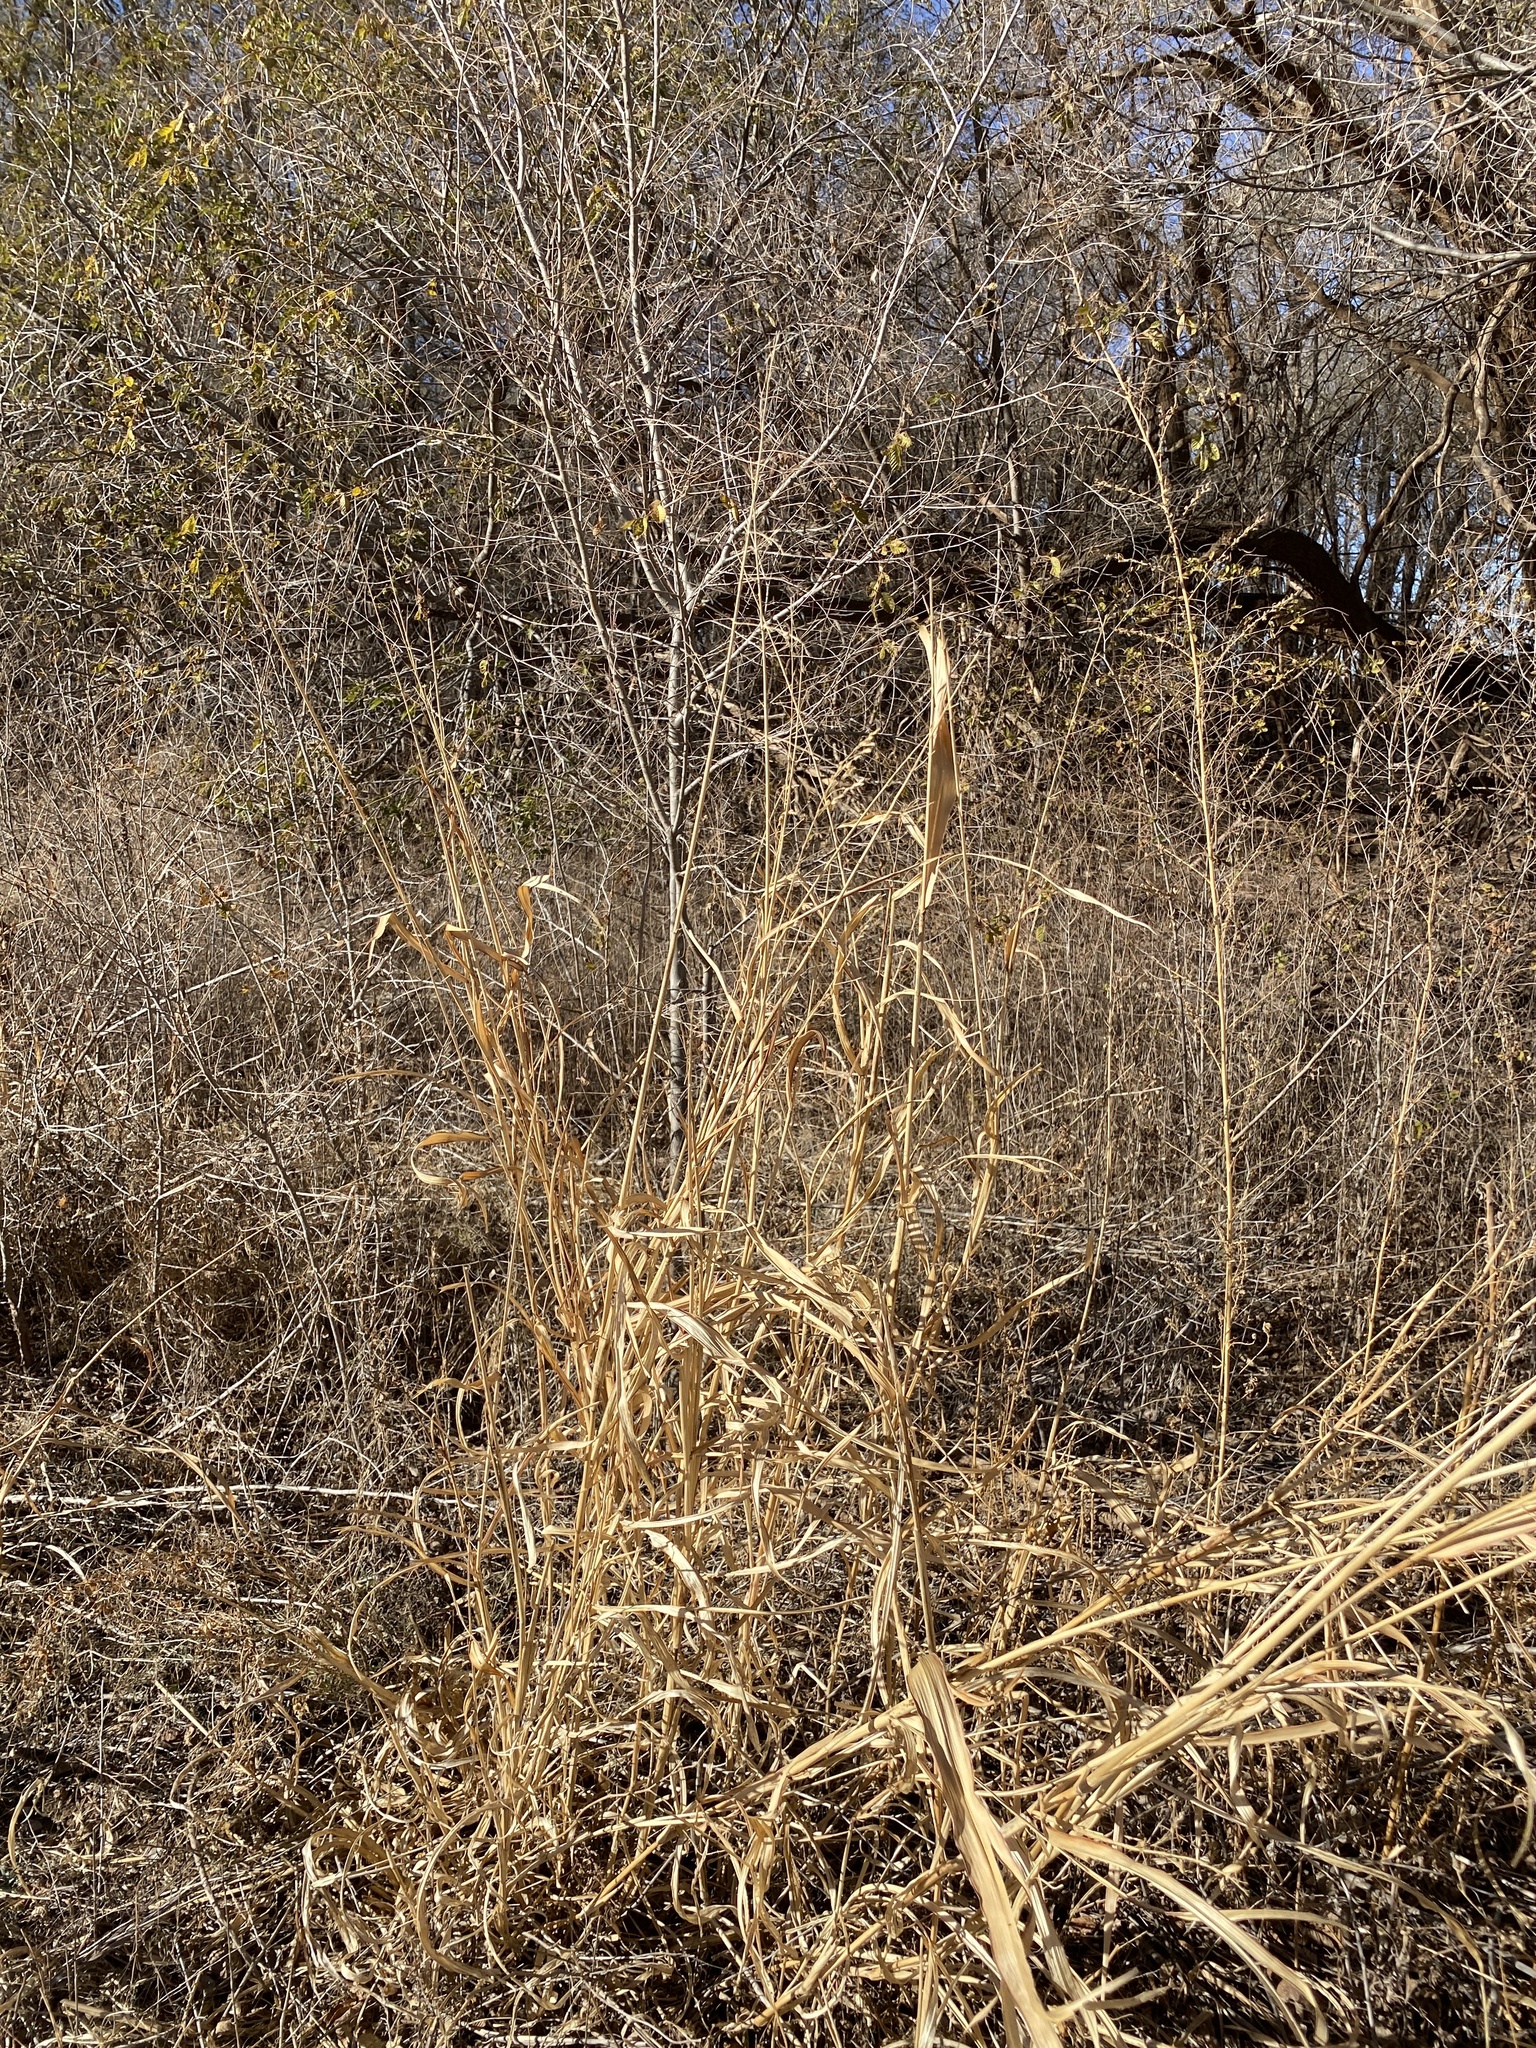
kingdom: Plantae
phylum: Tracheophyta
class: Liliopsida
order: Poales
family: Poaceae
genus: Sorghum
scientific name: Sorghum halepense
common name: Johnson-grass
